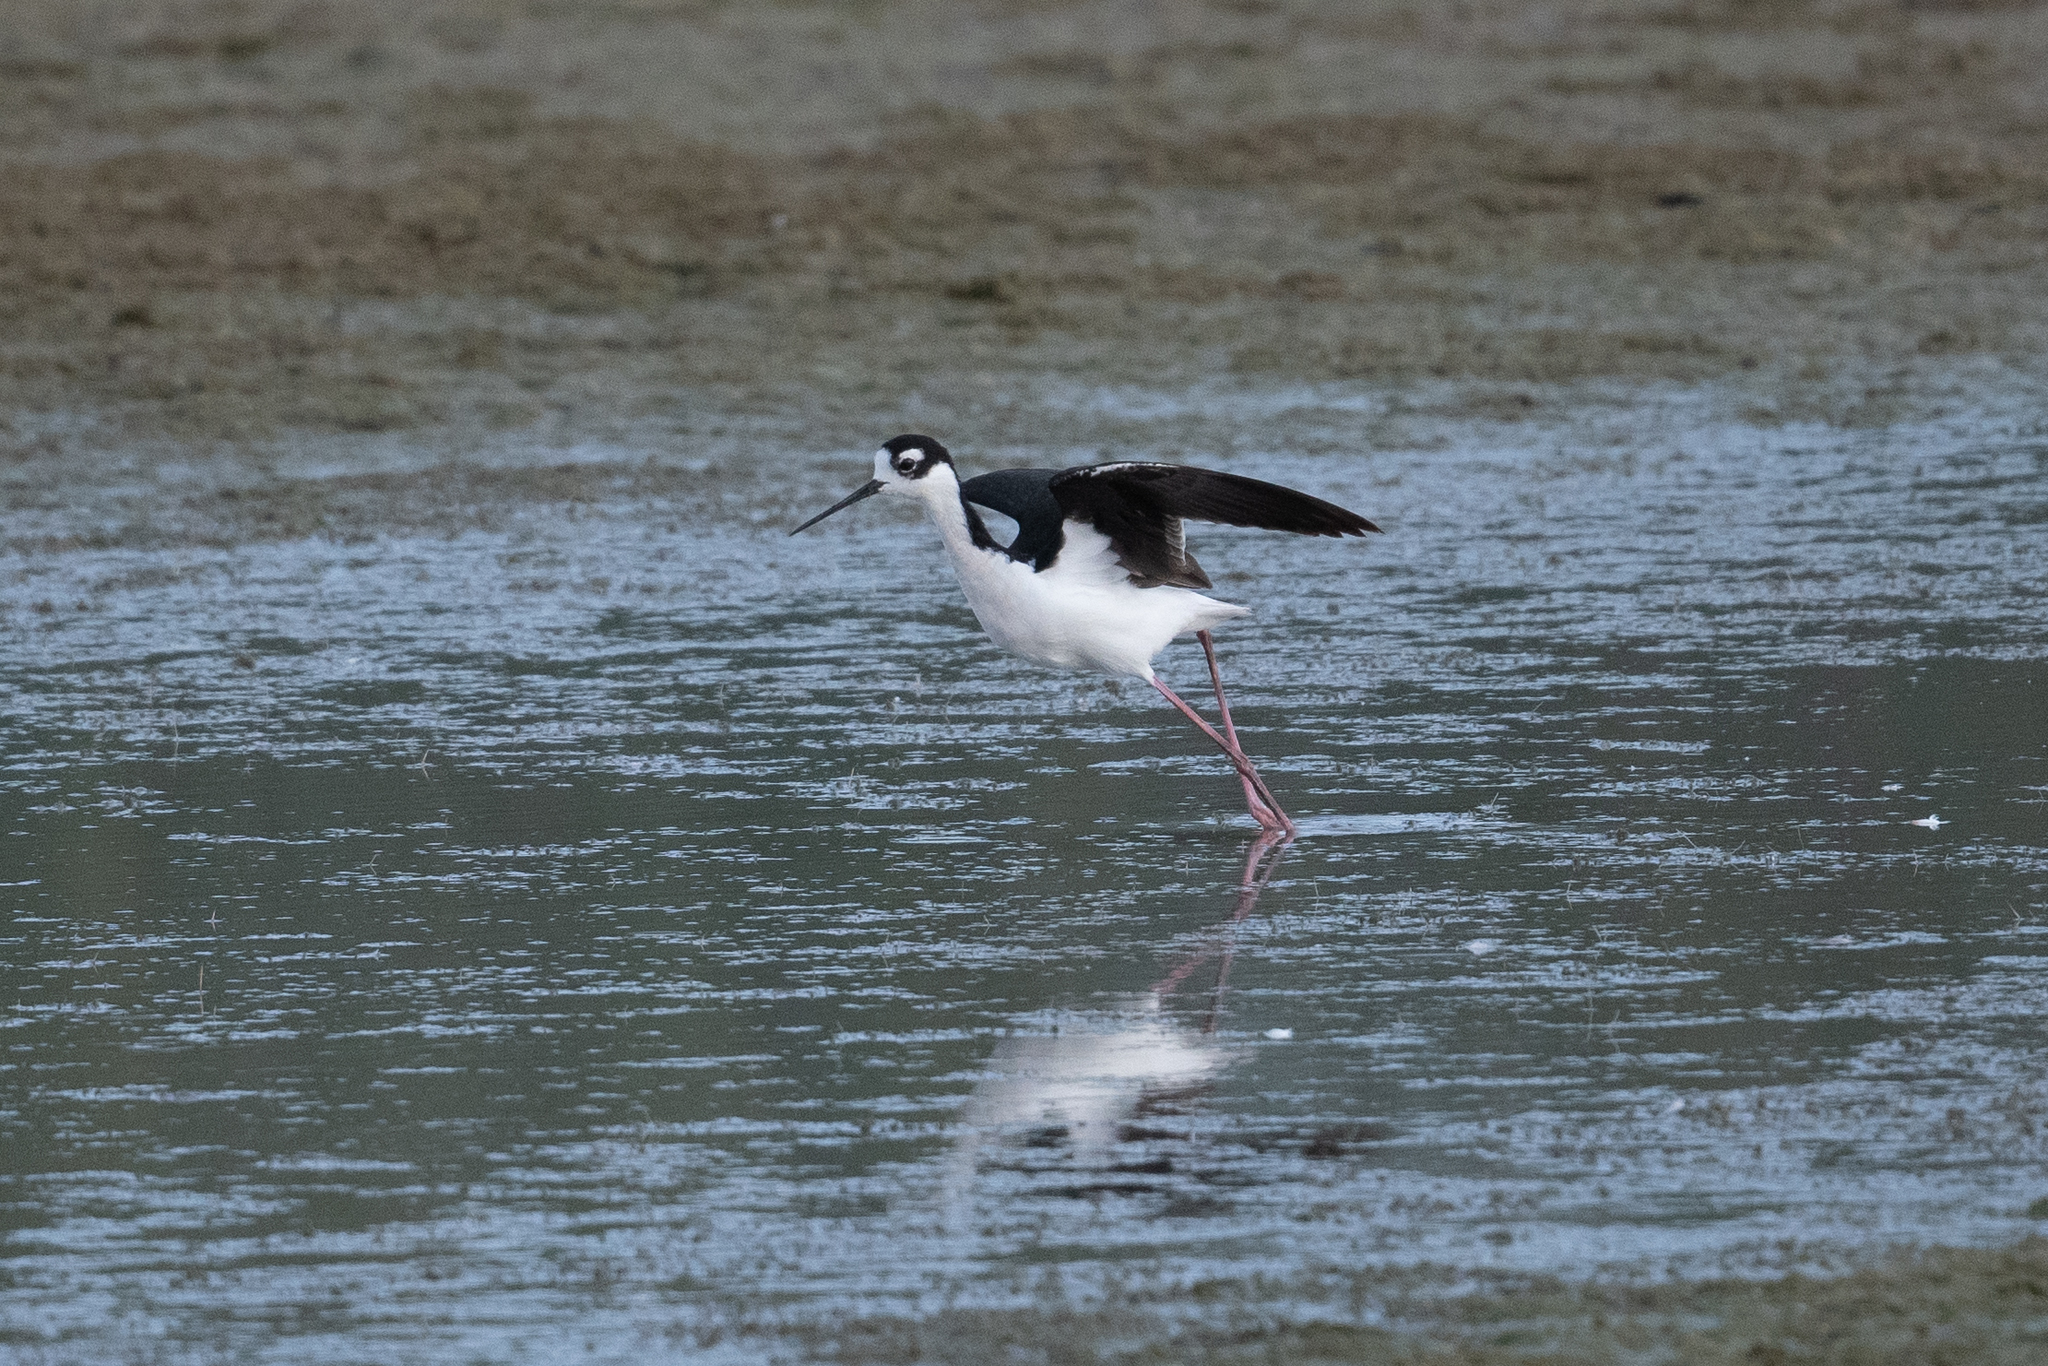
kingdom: Animalia
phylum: Chordata
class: Aves
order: Charadriiformes
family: Recurvirostridae
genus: Himantopus
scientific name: Himantopus mexicanus
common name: Black-necked stilt
